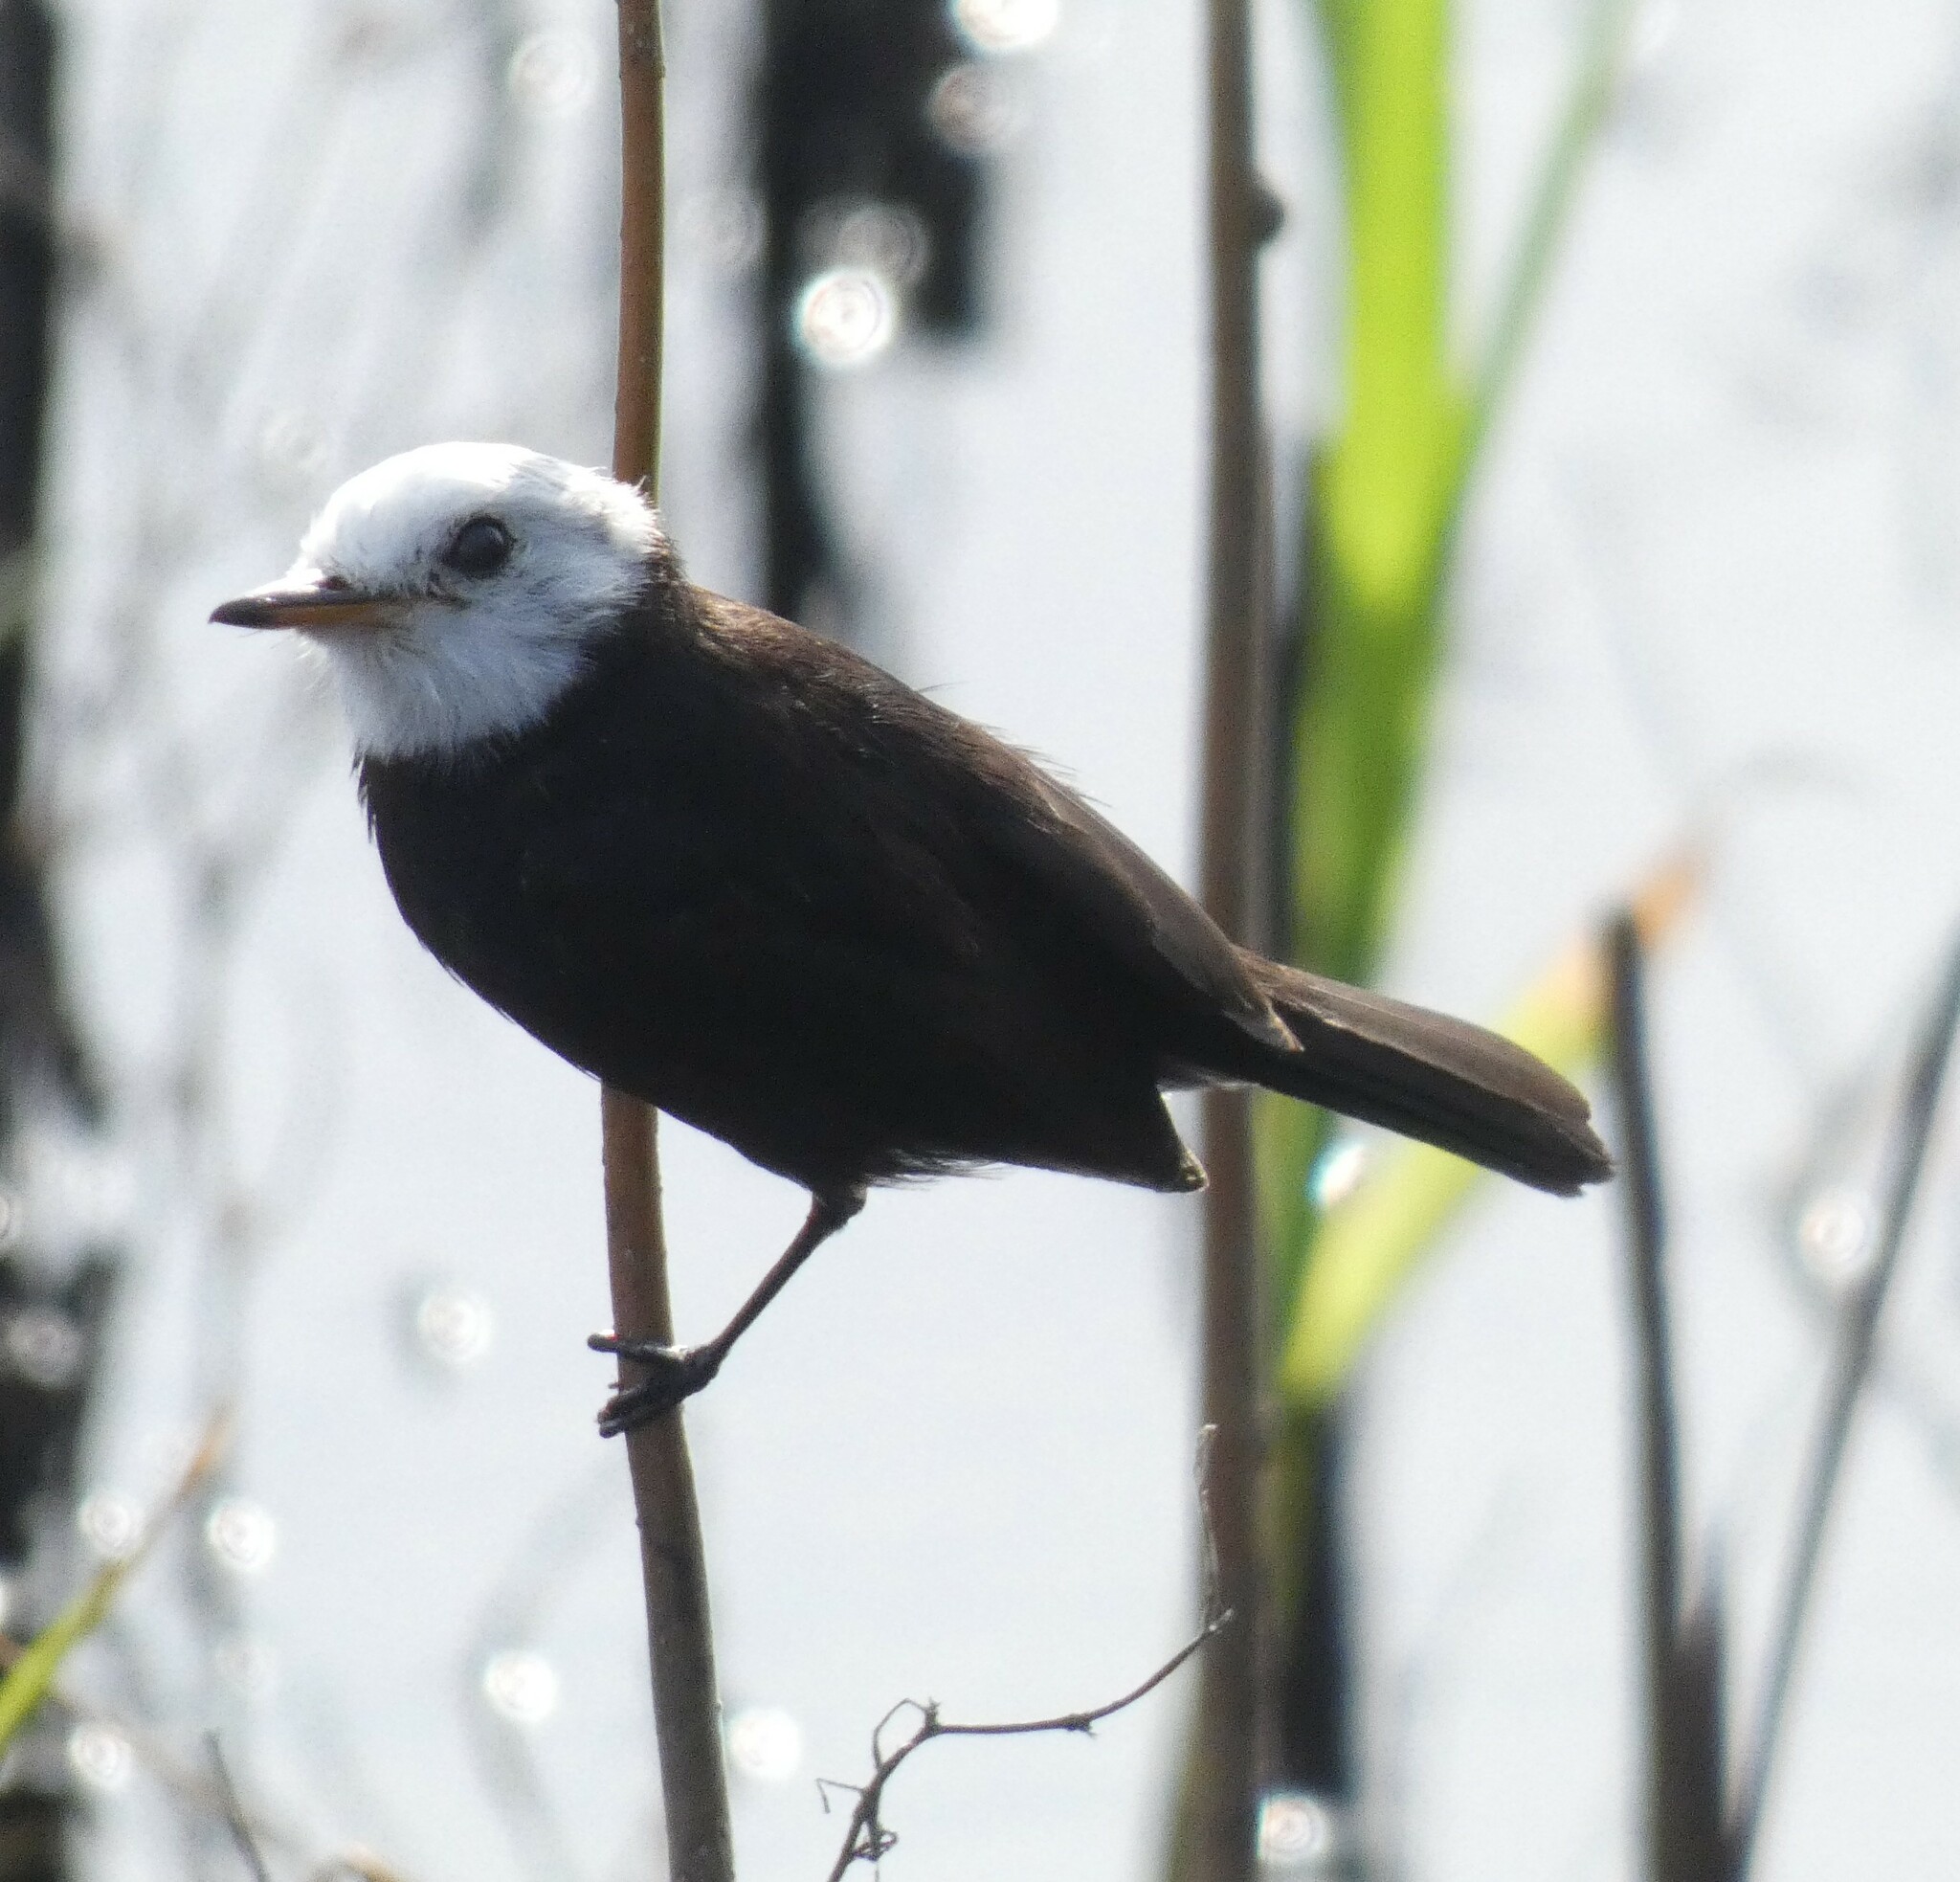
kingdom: Animalia
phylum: Chordata
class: Aves
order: Passeriformes
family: Tyrannidae
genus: Arundinicola
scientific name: Arundinicola leucocephala
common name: White-headed marsh tyrant
